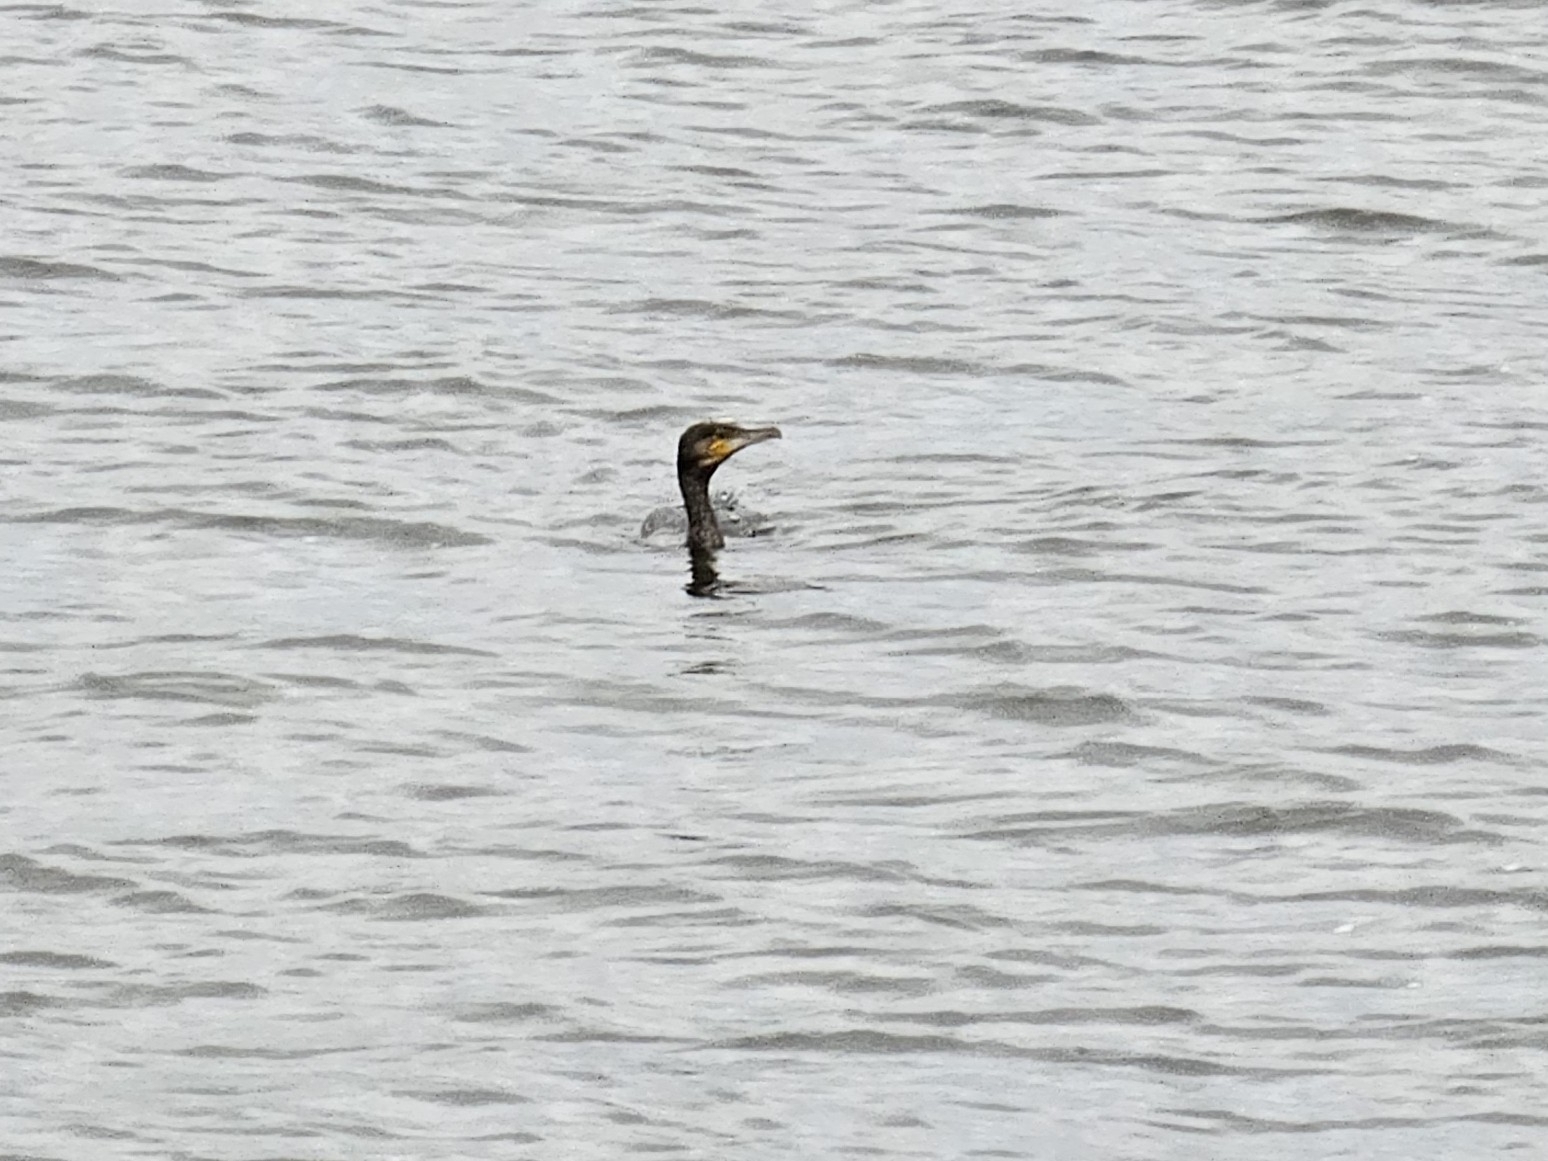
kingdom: Animalia
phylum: Chordata
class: Aves
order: Suliformes
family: Phalacrocoracidae
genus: Phalacrocorax
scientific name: Phalacrocorax carbo
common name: Great cormorant
